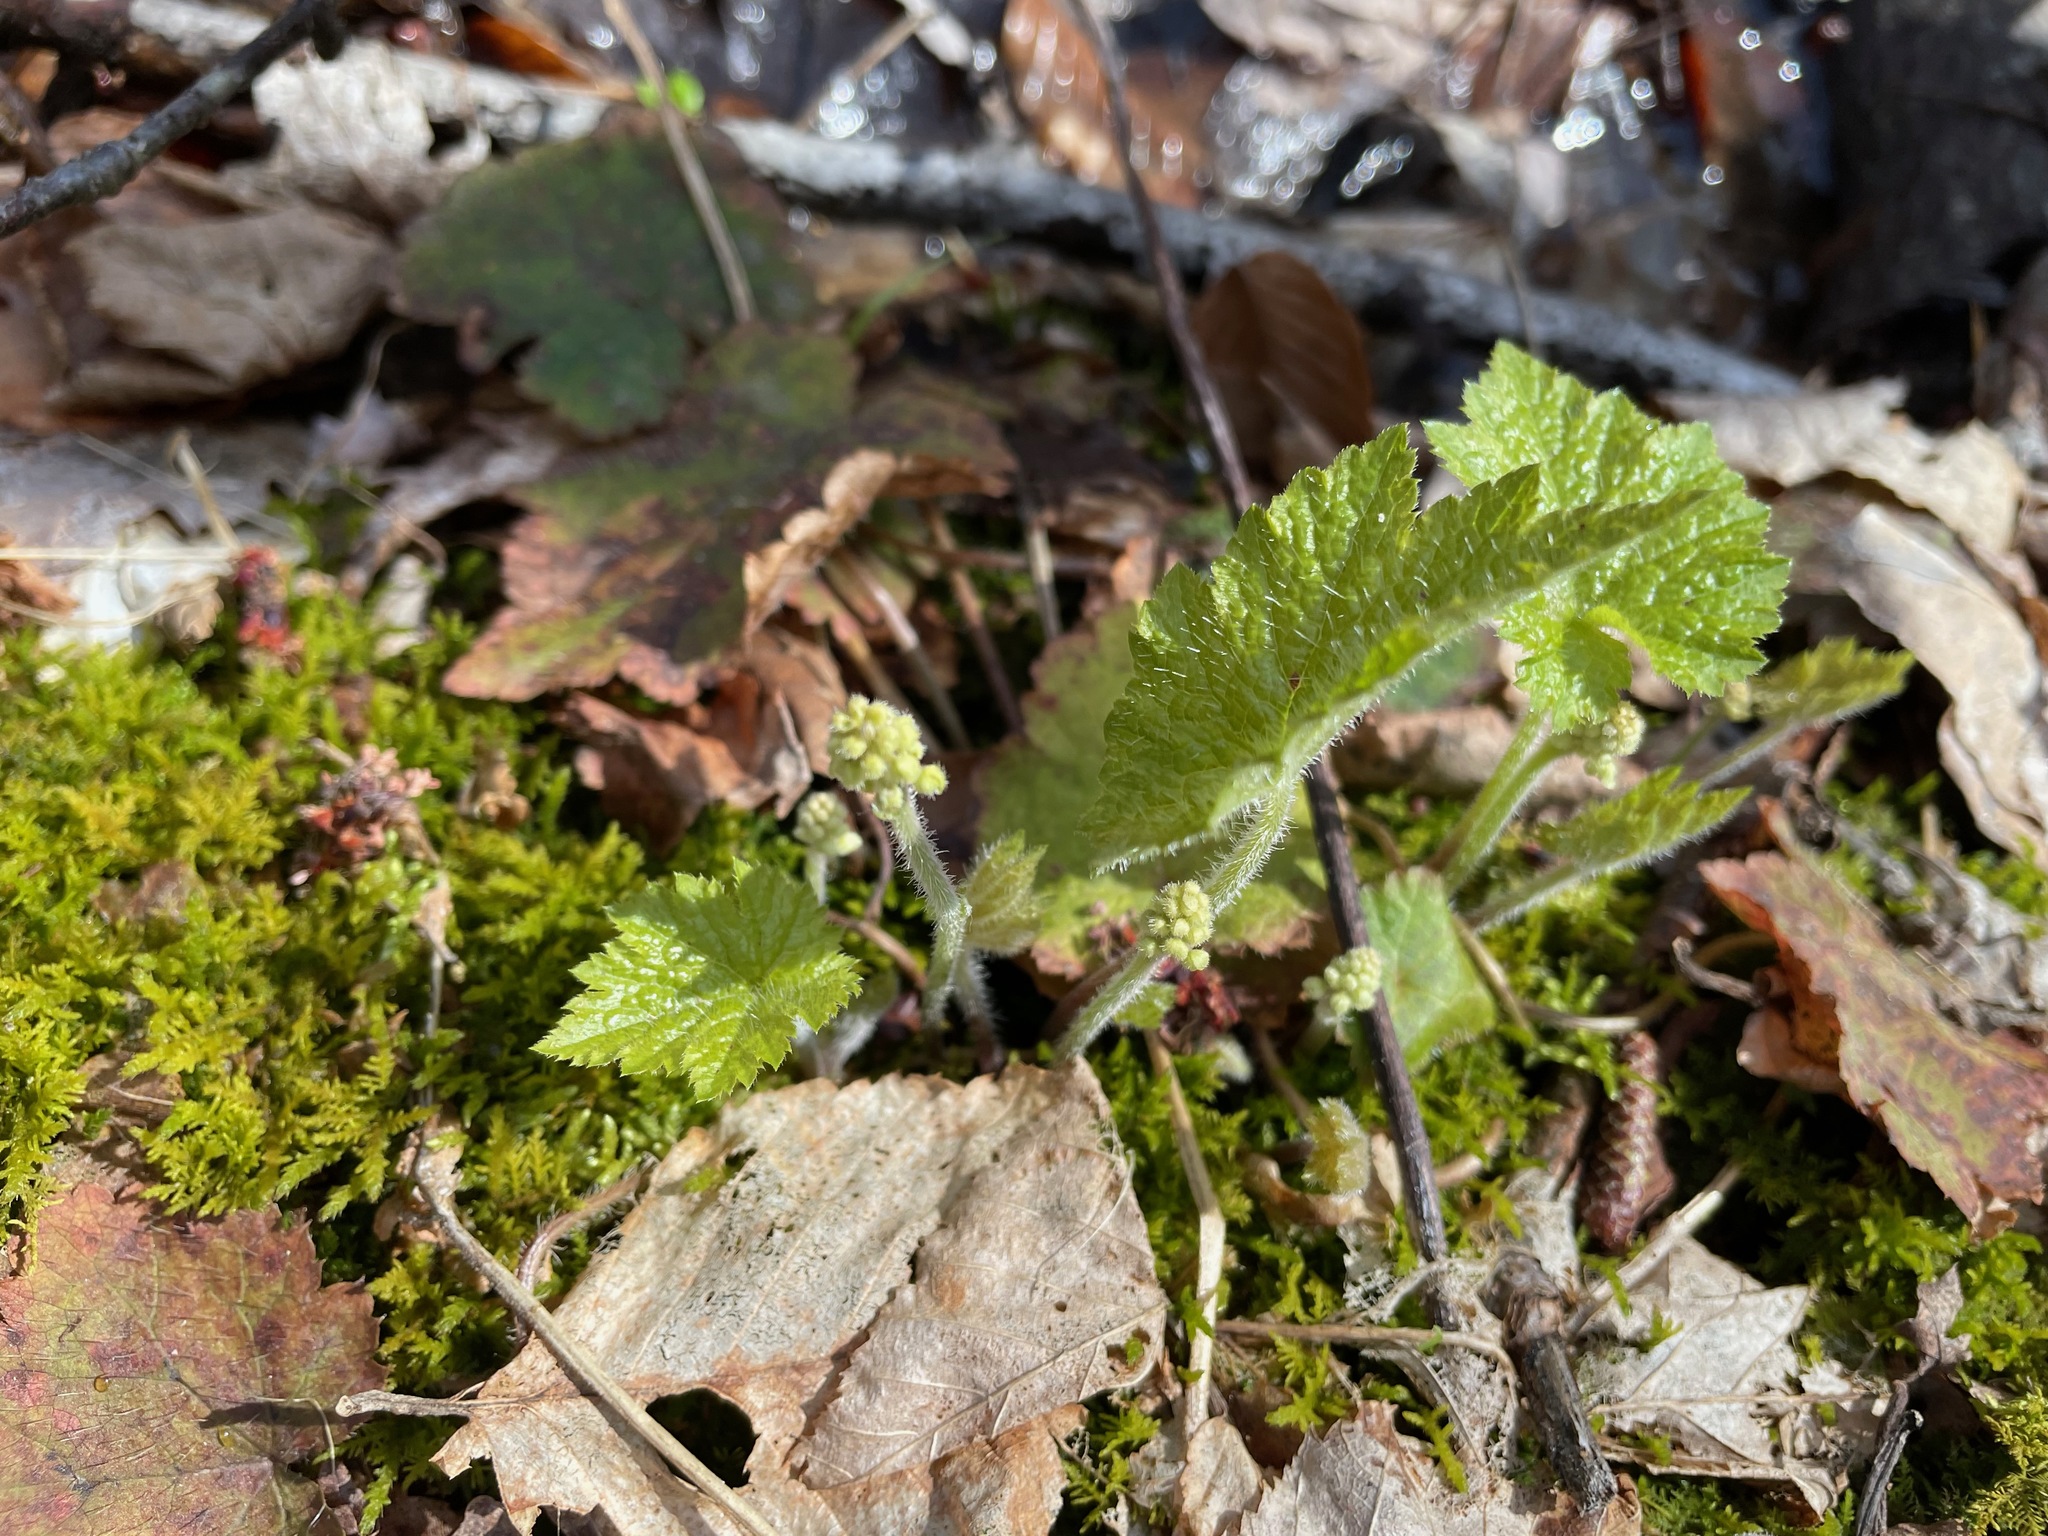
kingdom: Plantae
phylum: Tracheophyta
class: Magnoliopsida
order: Saxifragales
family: Saxifragaceae
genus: Tiarella
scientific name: Tiarella stolonifera
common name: Stoloniferous foamflower
